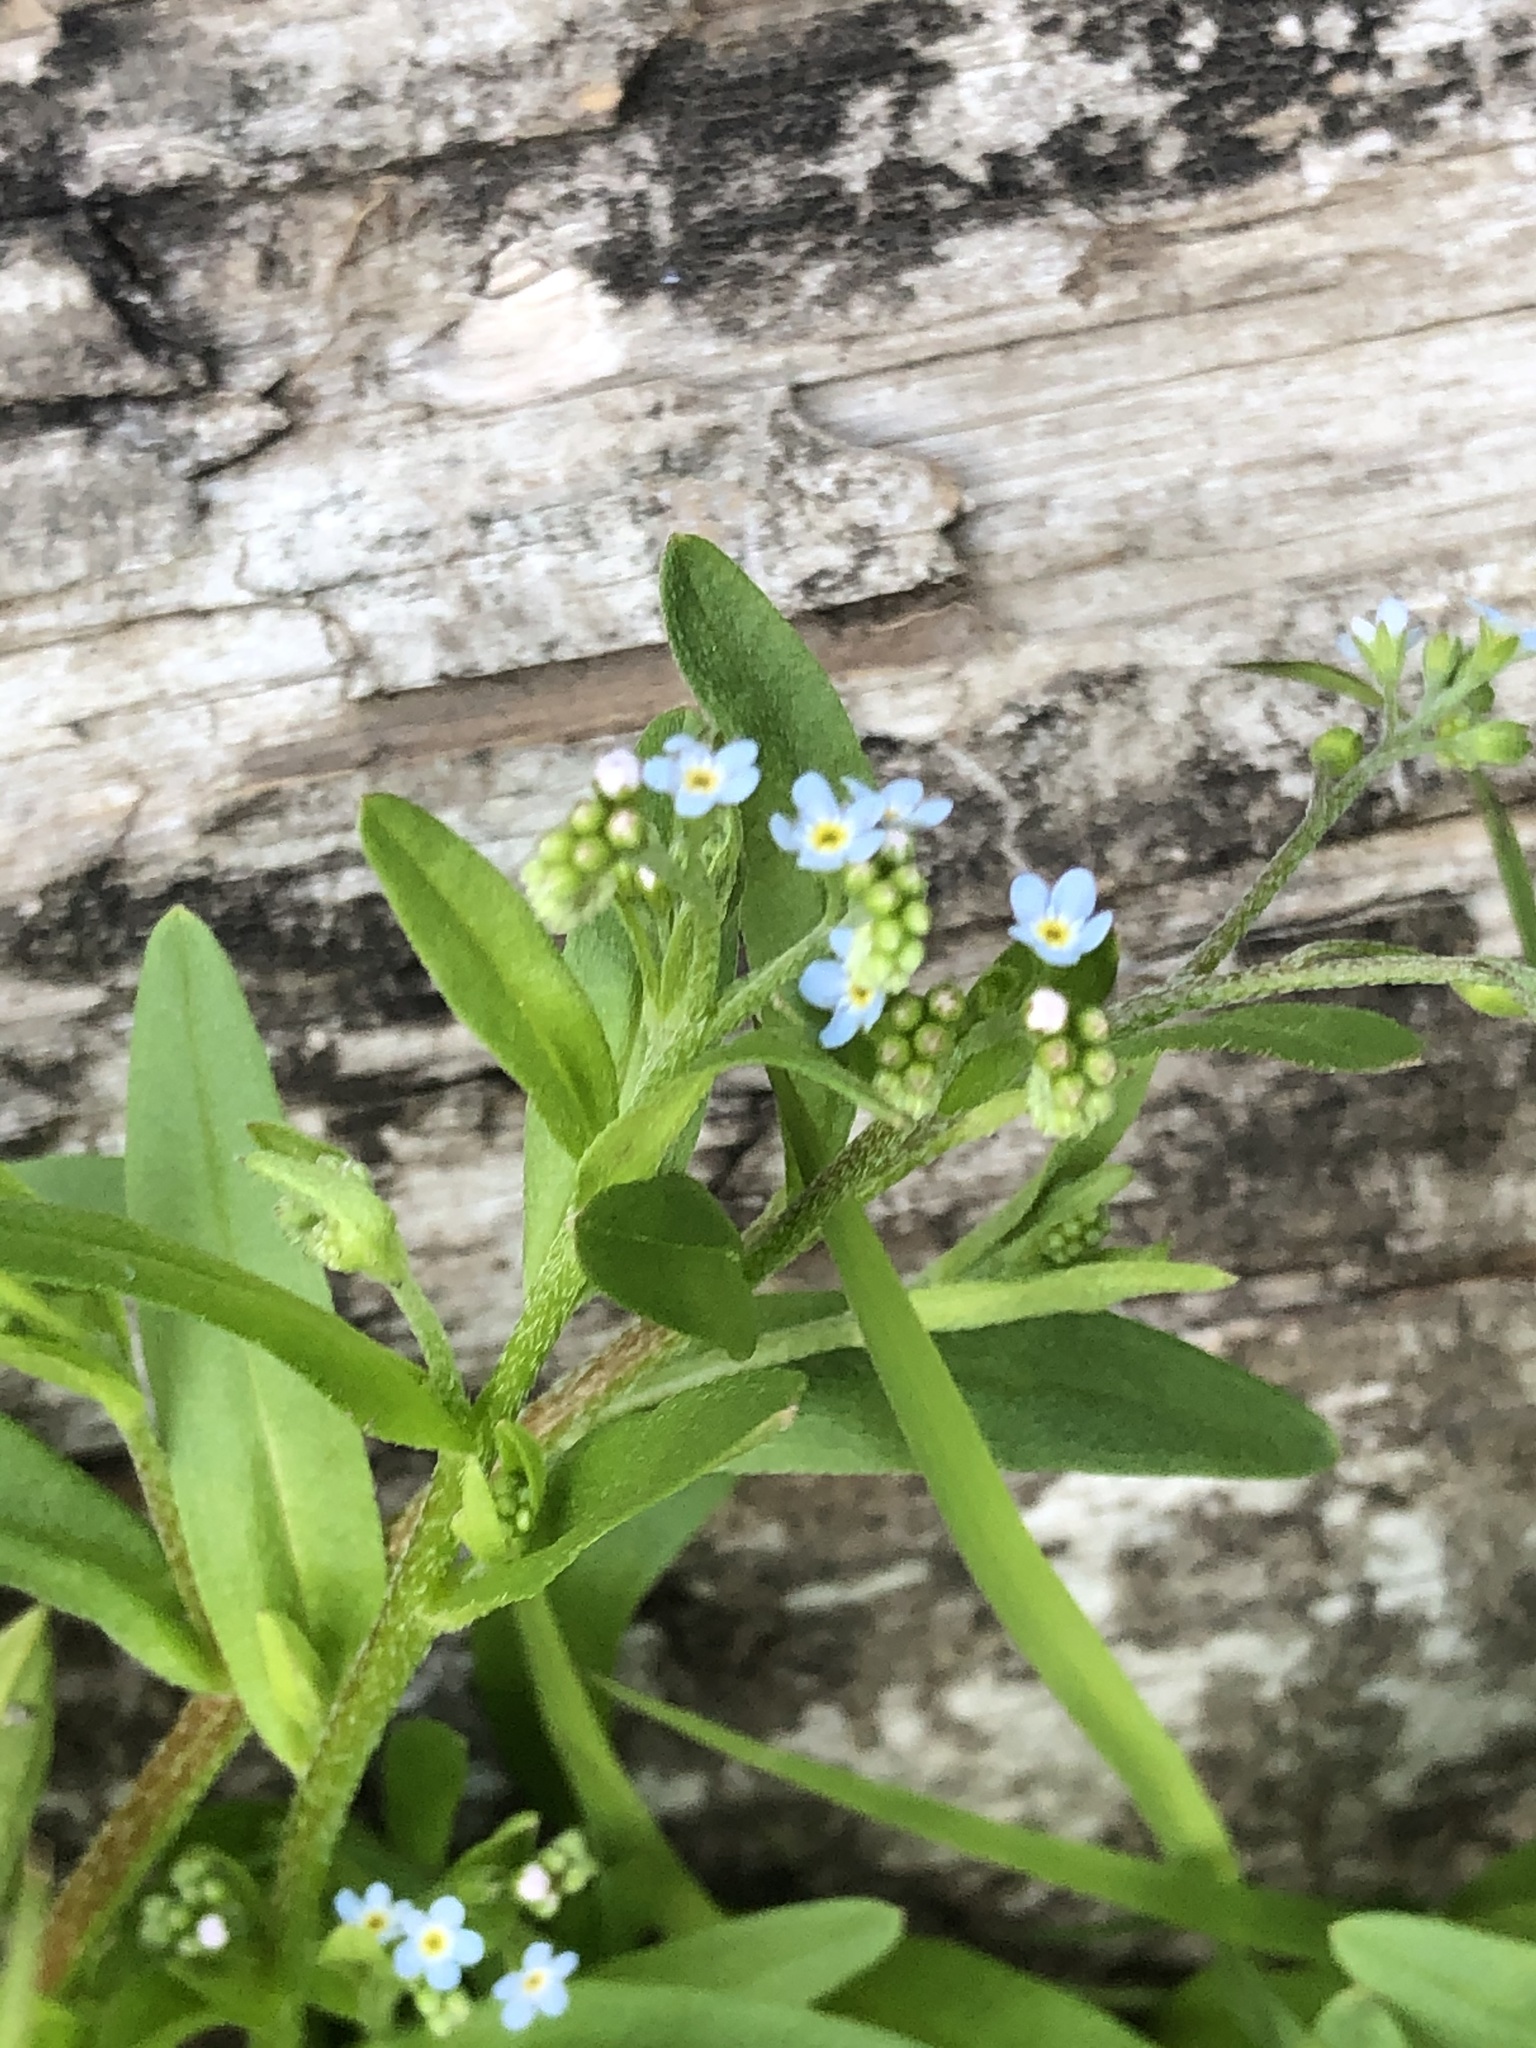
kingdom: Plantae
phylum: Tracheophyta
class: Magnoliopsida
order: Boraginales
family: Boraginaceae
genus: Myosotis
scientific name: Myosotis scorpioides
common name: Water forget-me-not
